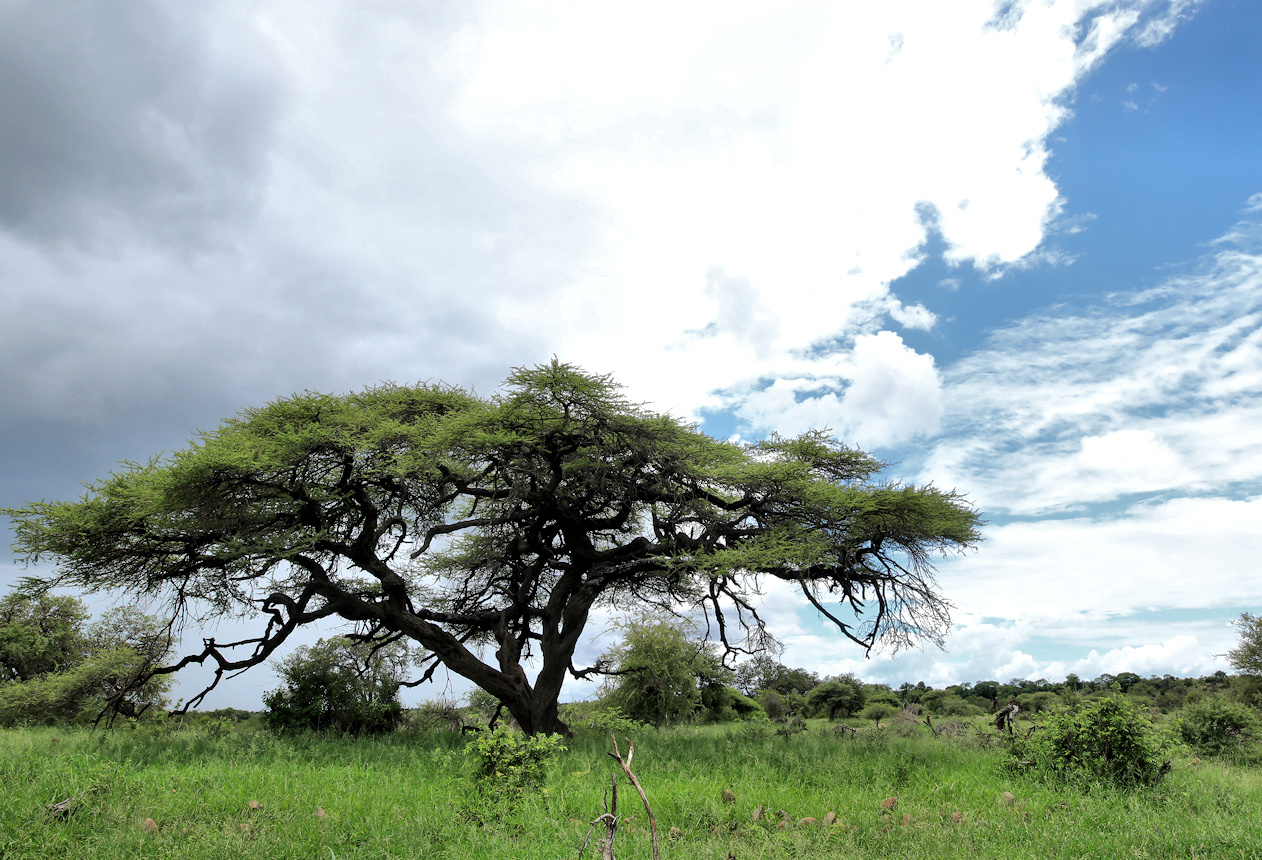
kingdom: Plantae
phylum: Tracheophyta
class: Magnoliopsida
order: Fabales
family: Fabaceae
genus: Vachellia
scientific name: Vachellia tortilis
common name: Umbrella thorn acacia
